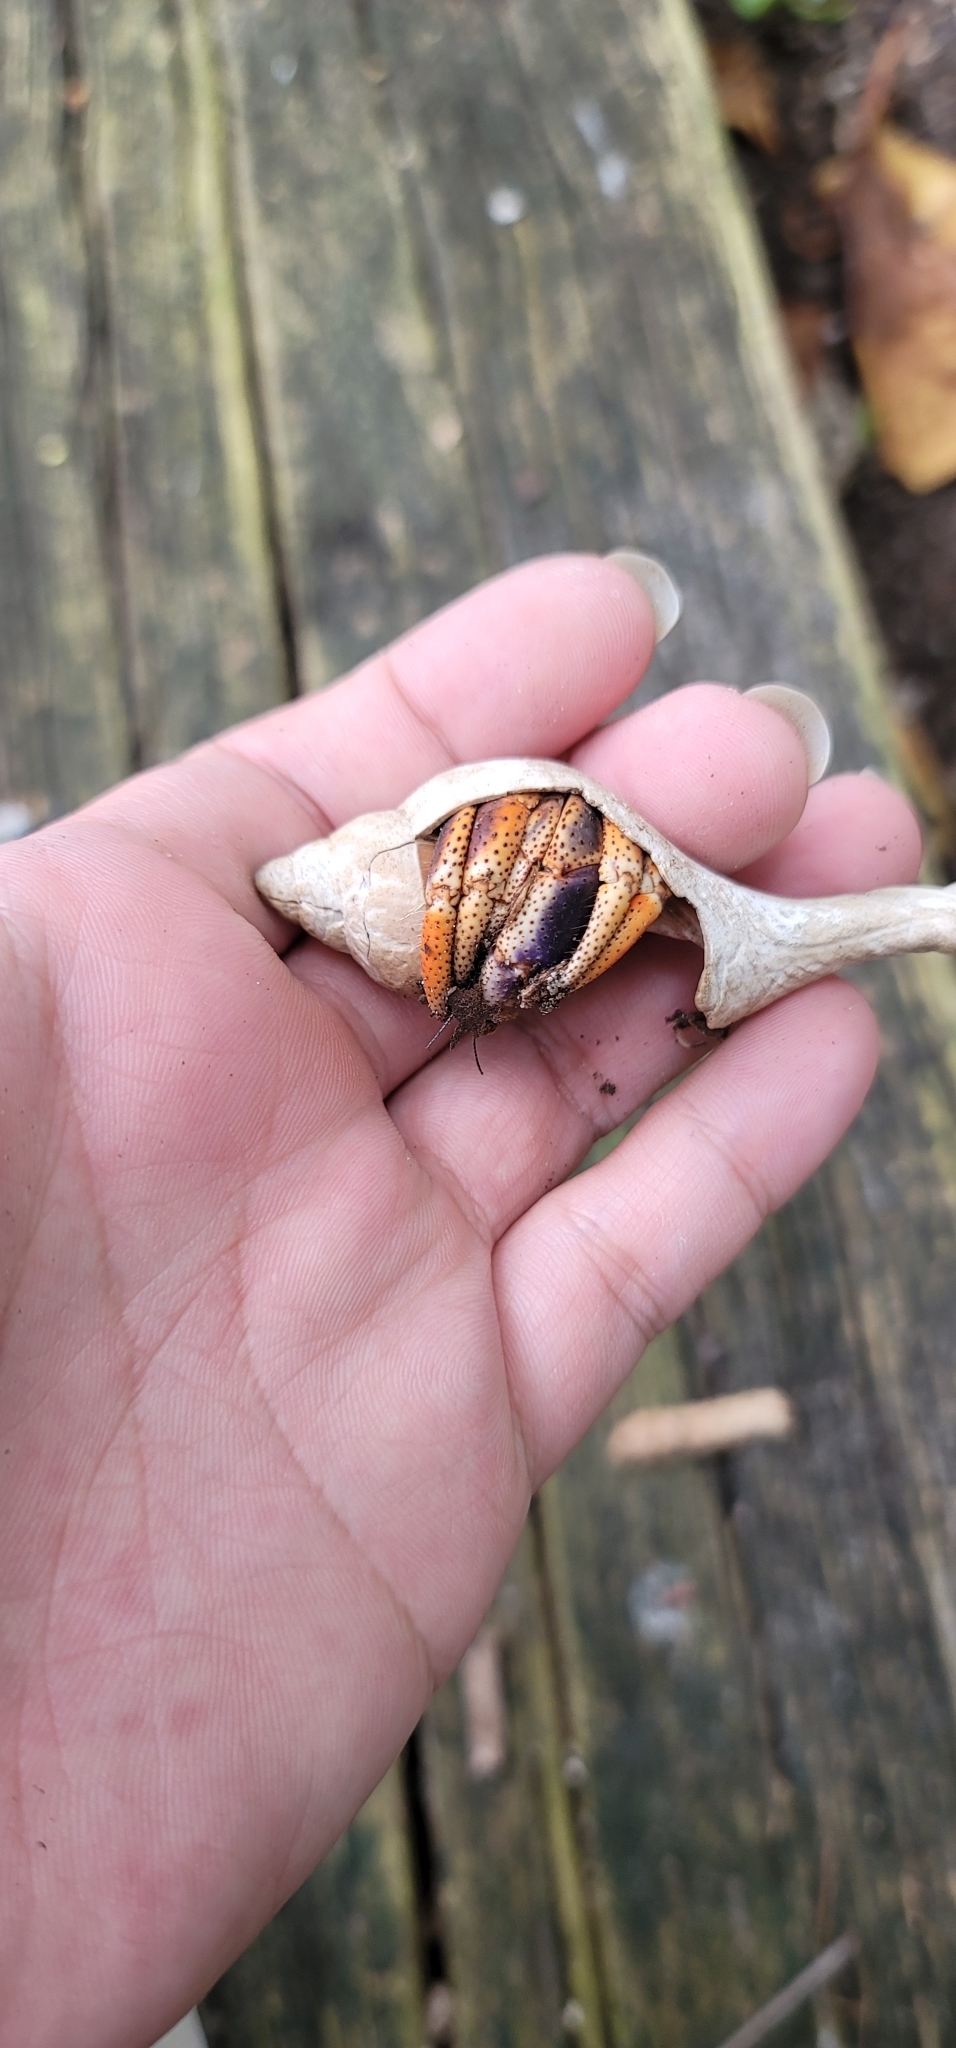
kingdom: Animalia
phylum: Arthropoda
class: Malacostraca
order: Decapoda
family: Coenobitidae
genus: Coenobita
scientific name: Coenobita clypeatus
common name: Caribbean hermit crab
